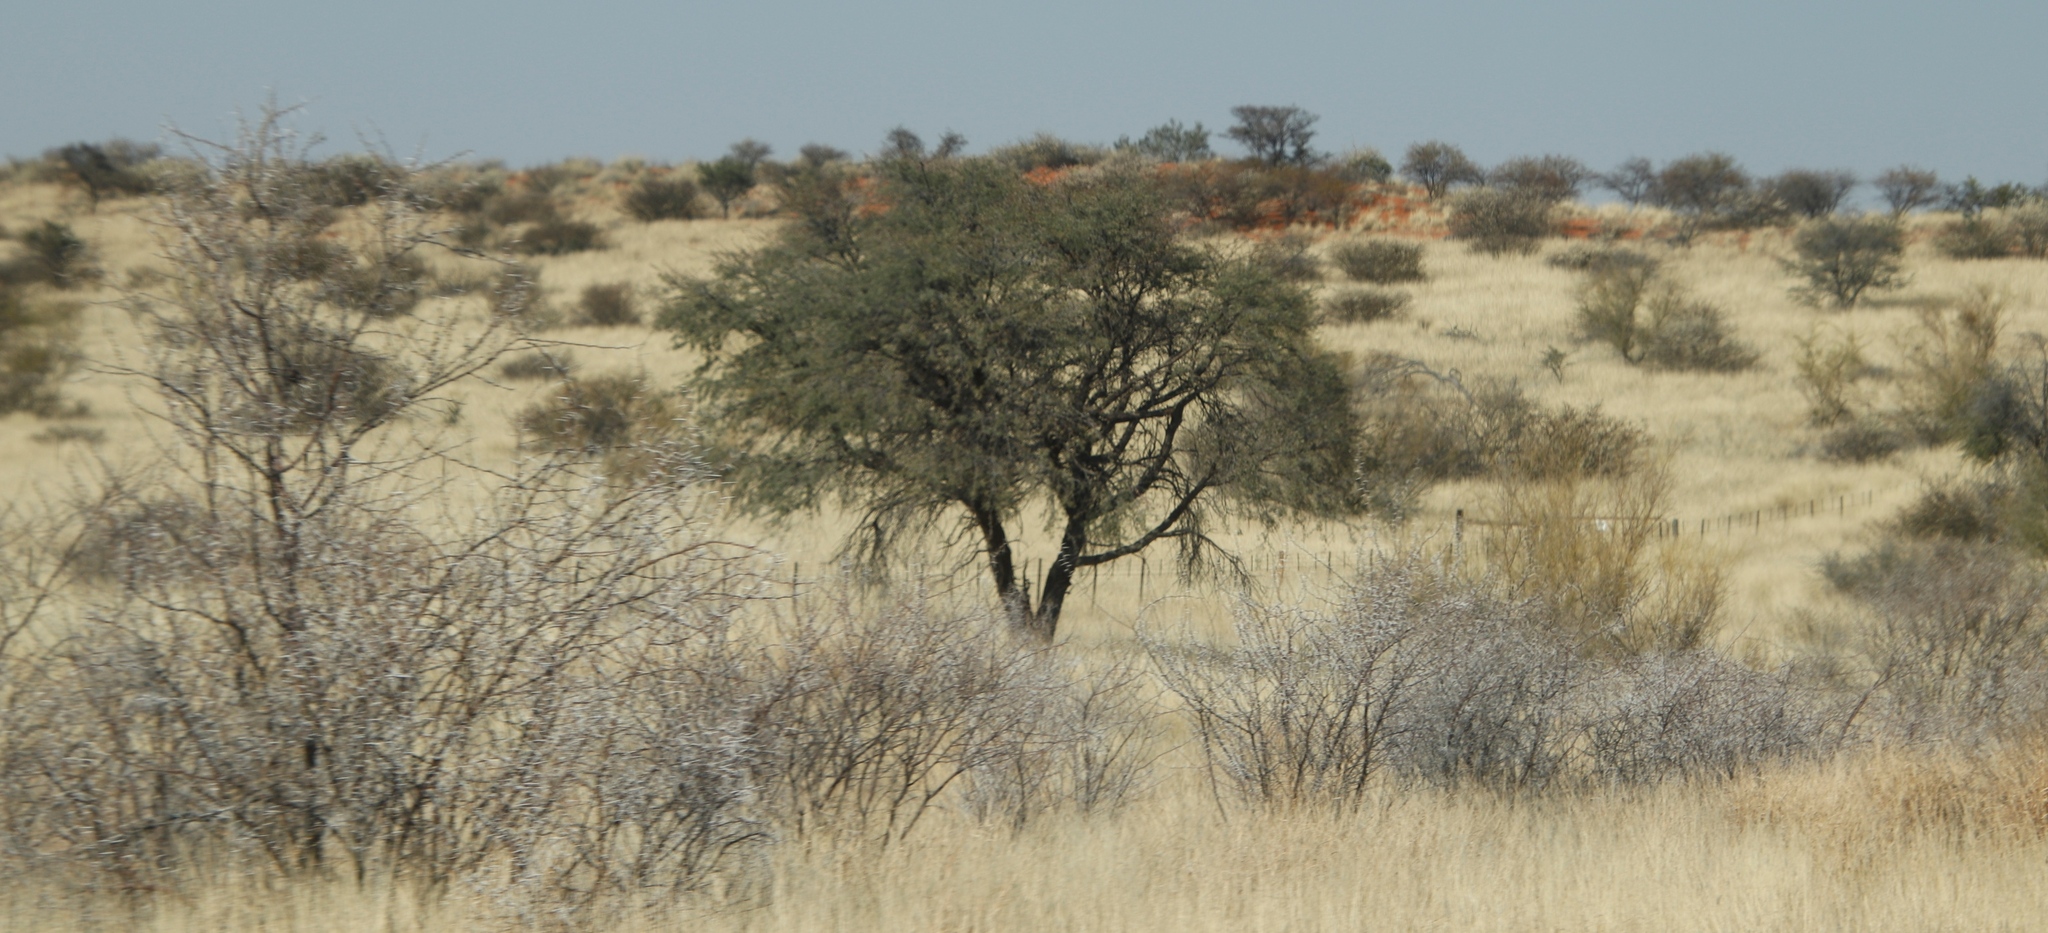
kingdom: Plantae
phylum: Tracheophyta
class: Magnoliopsida
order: Fabales
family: Fabaceae
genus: Vachellia
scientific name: Vachellia erioloba
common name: Camel thorn
